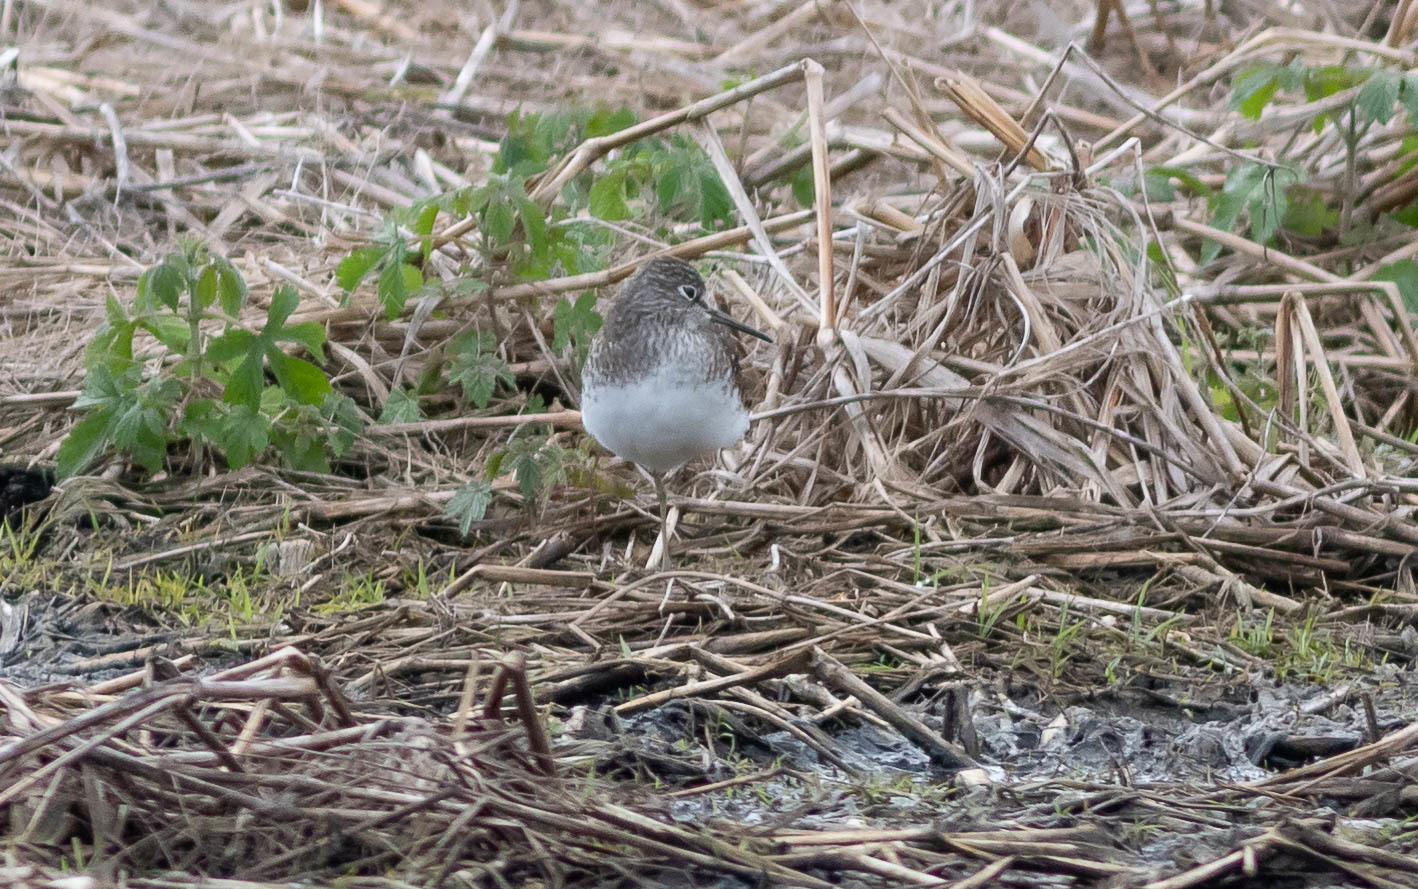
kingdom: Animalia
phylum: Chordata
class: Aves
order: Charadriiformes
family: Scolopacidae
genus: Tringa
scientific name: Tringa solitaria
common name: Solitary sandpiper
